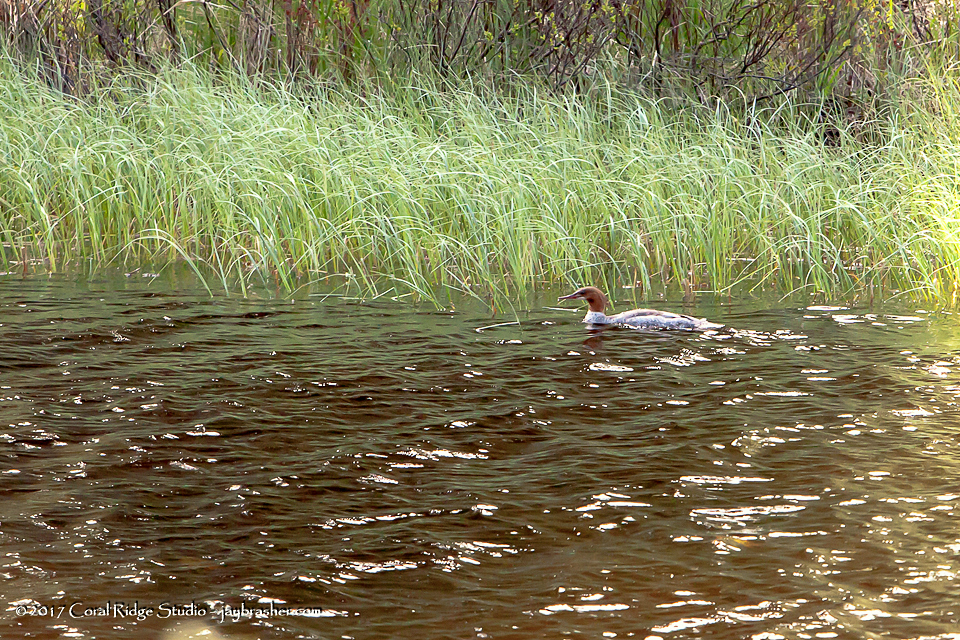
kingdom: Animalia
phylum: Chordata
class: Aves
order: Anseriformes
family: Anatidae
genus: Mergus
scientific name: Mergus merganser
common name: Common merganser
